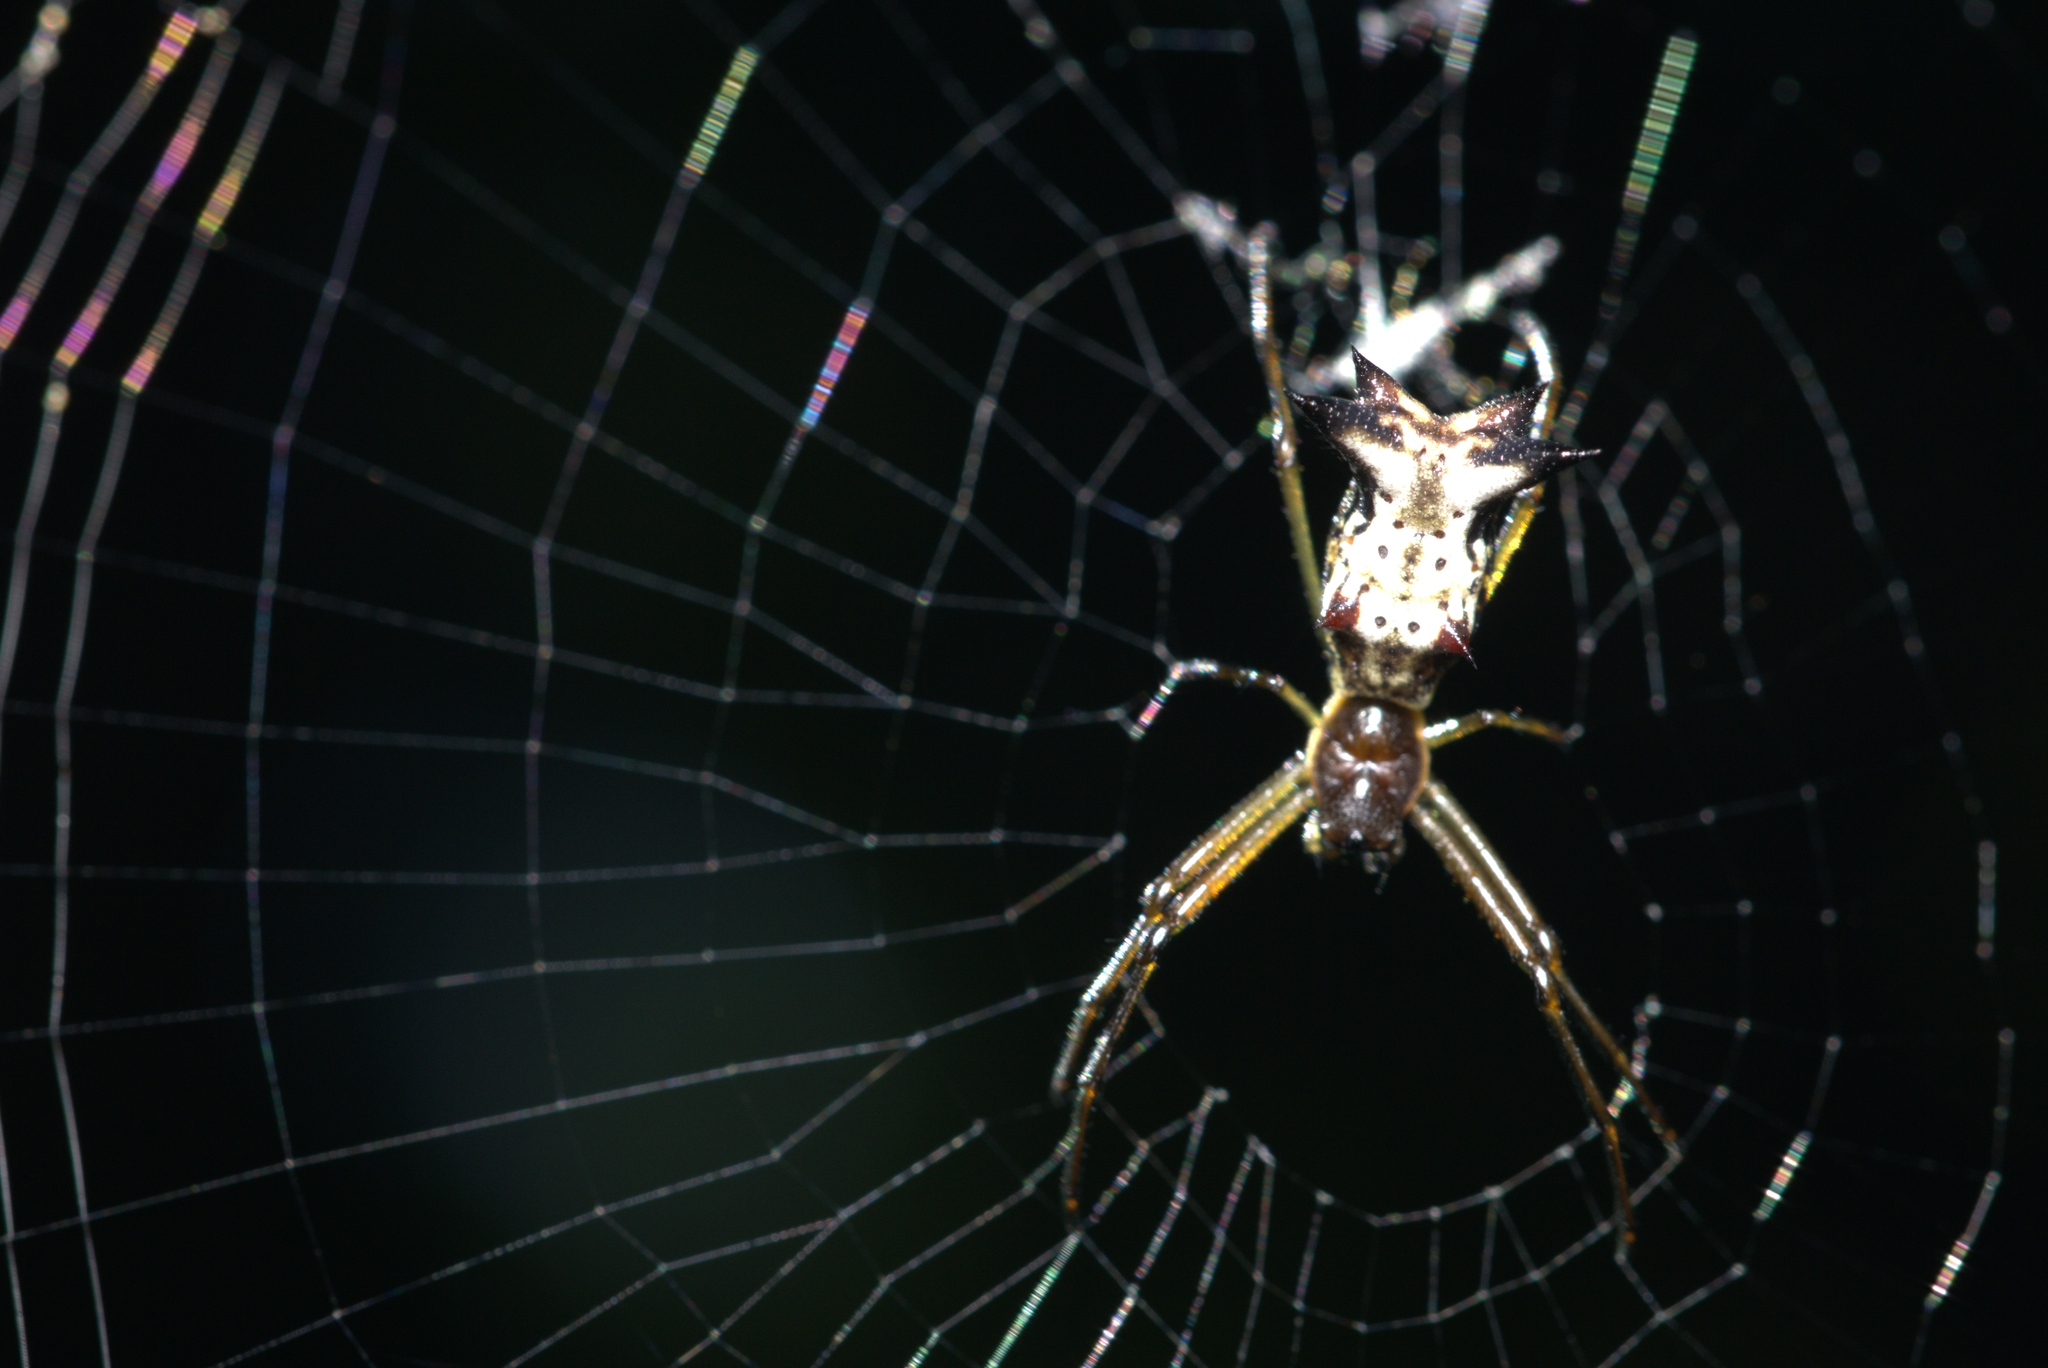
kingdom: Animalia
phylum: Arthropoda
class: Arachnida
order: Araneae
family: Araneidae
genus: Micrathena
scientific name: Micrathena nigrichelis
